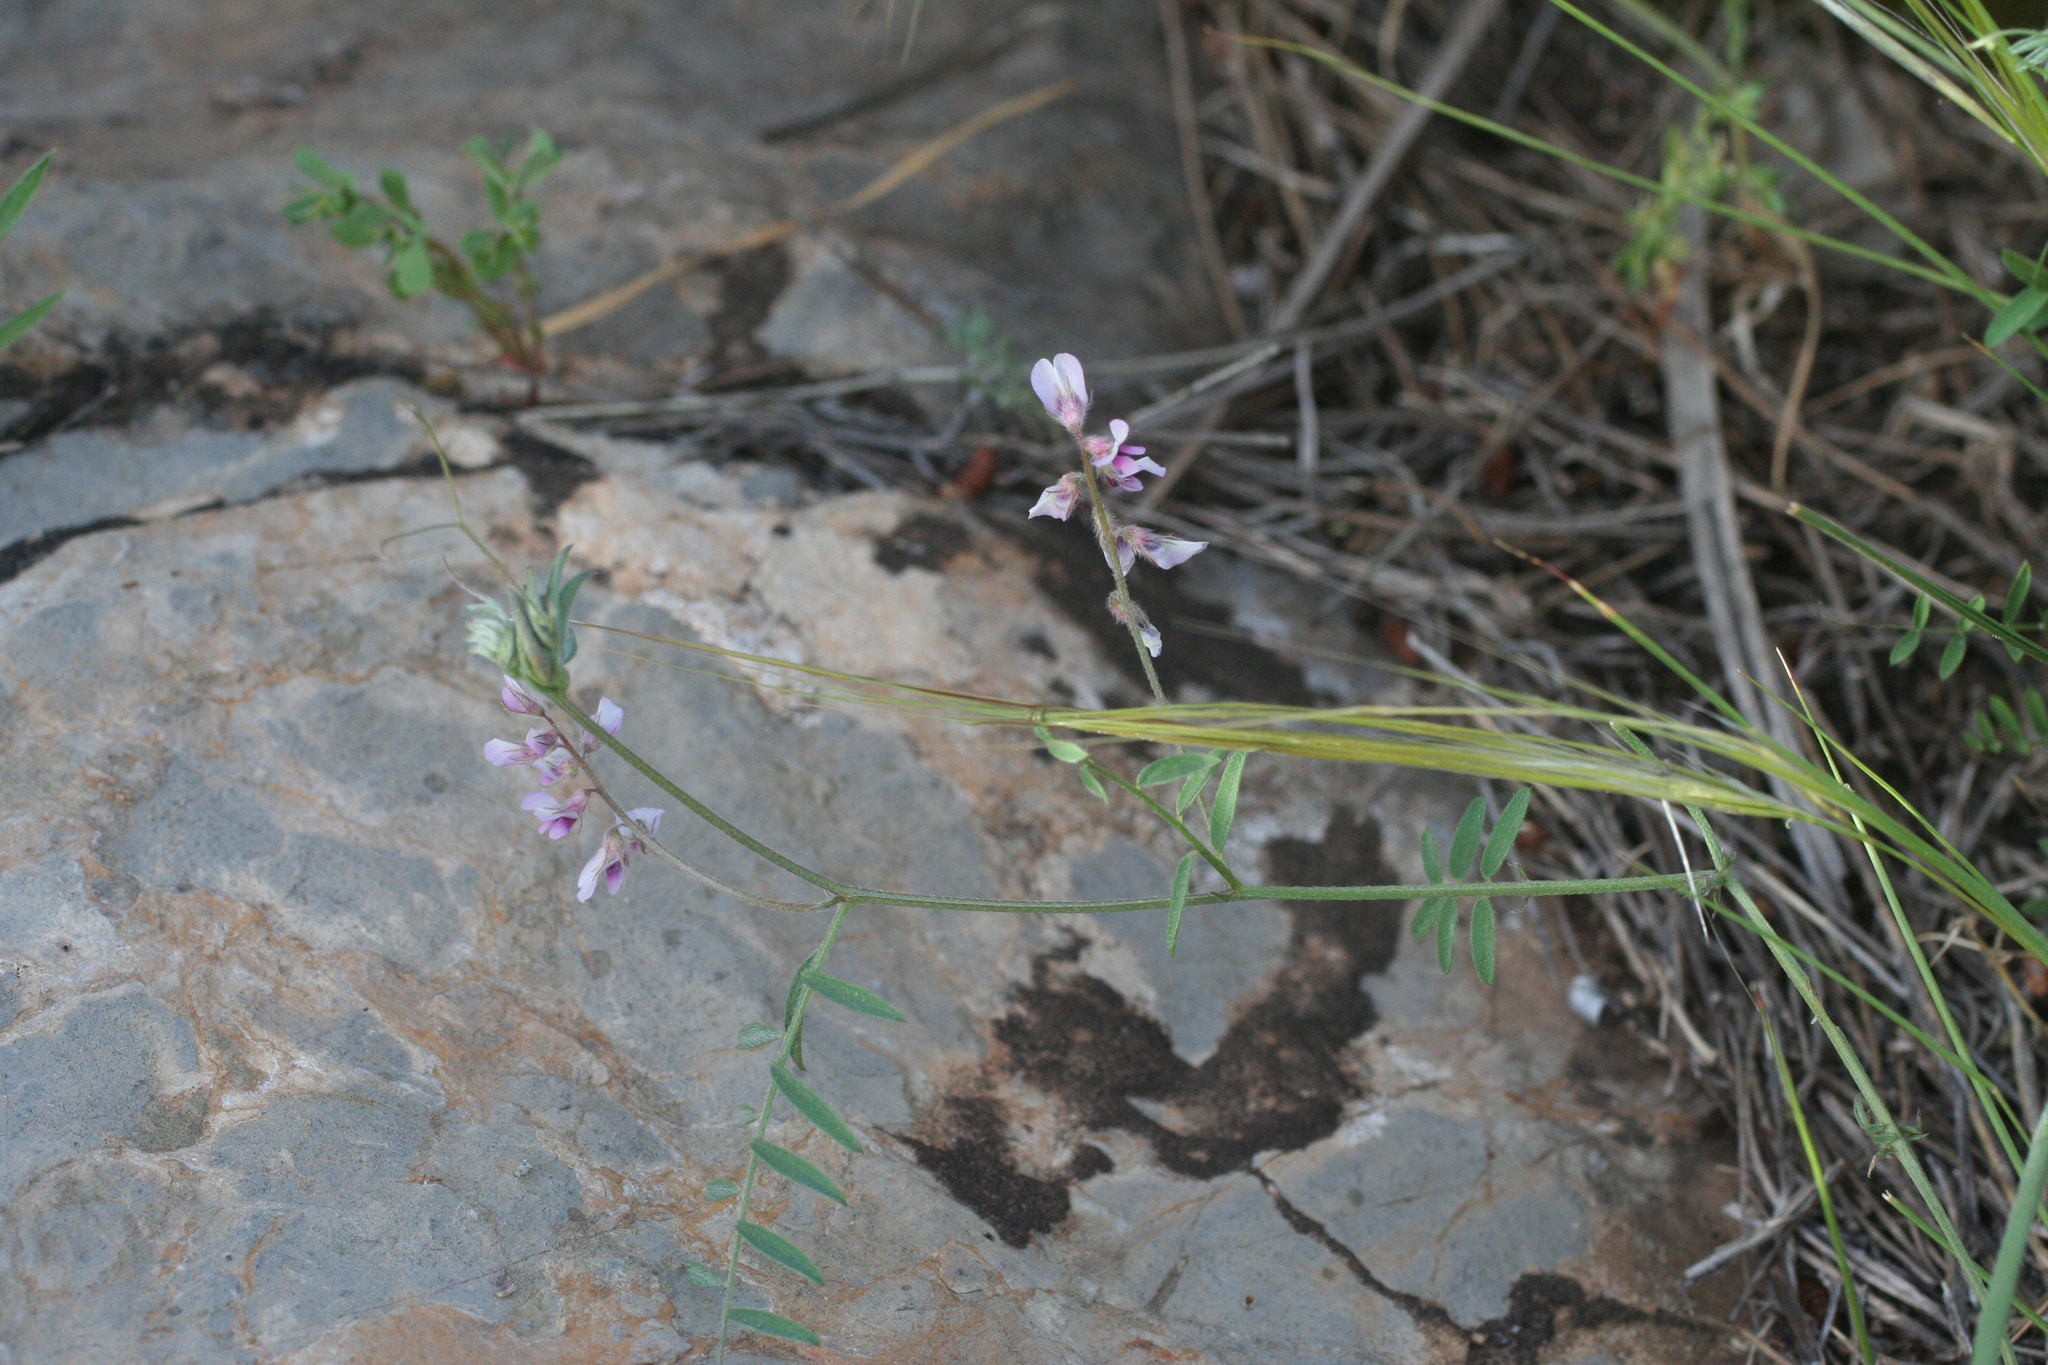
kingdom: Plantae
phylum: Tracheophyta
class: Magnoliopsida
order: Fabales
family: Fabaceae
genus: Vicia
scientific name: Vicia hirsuta
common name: Tiny vetch
